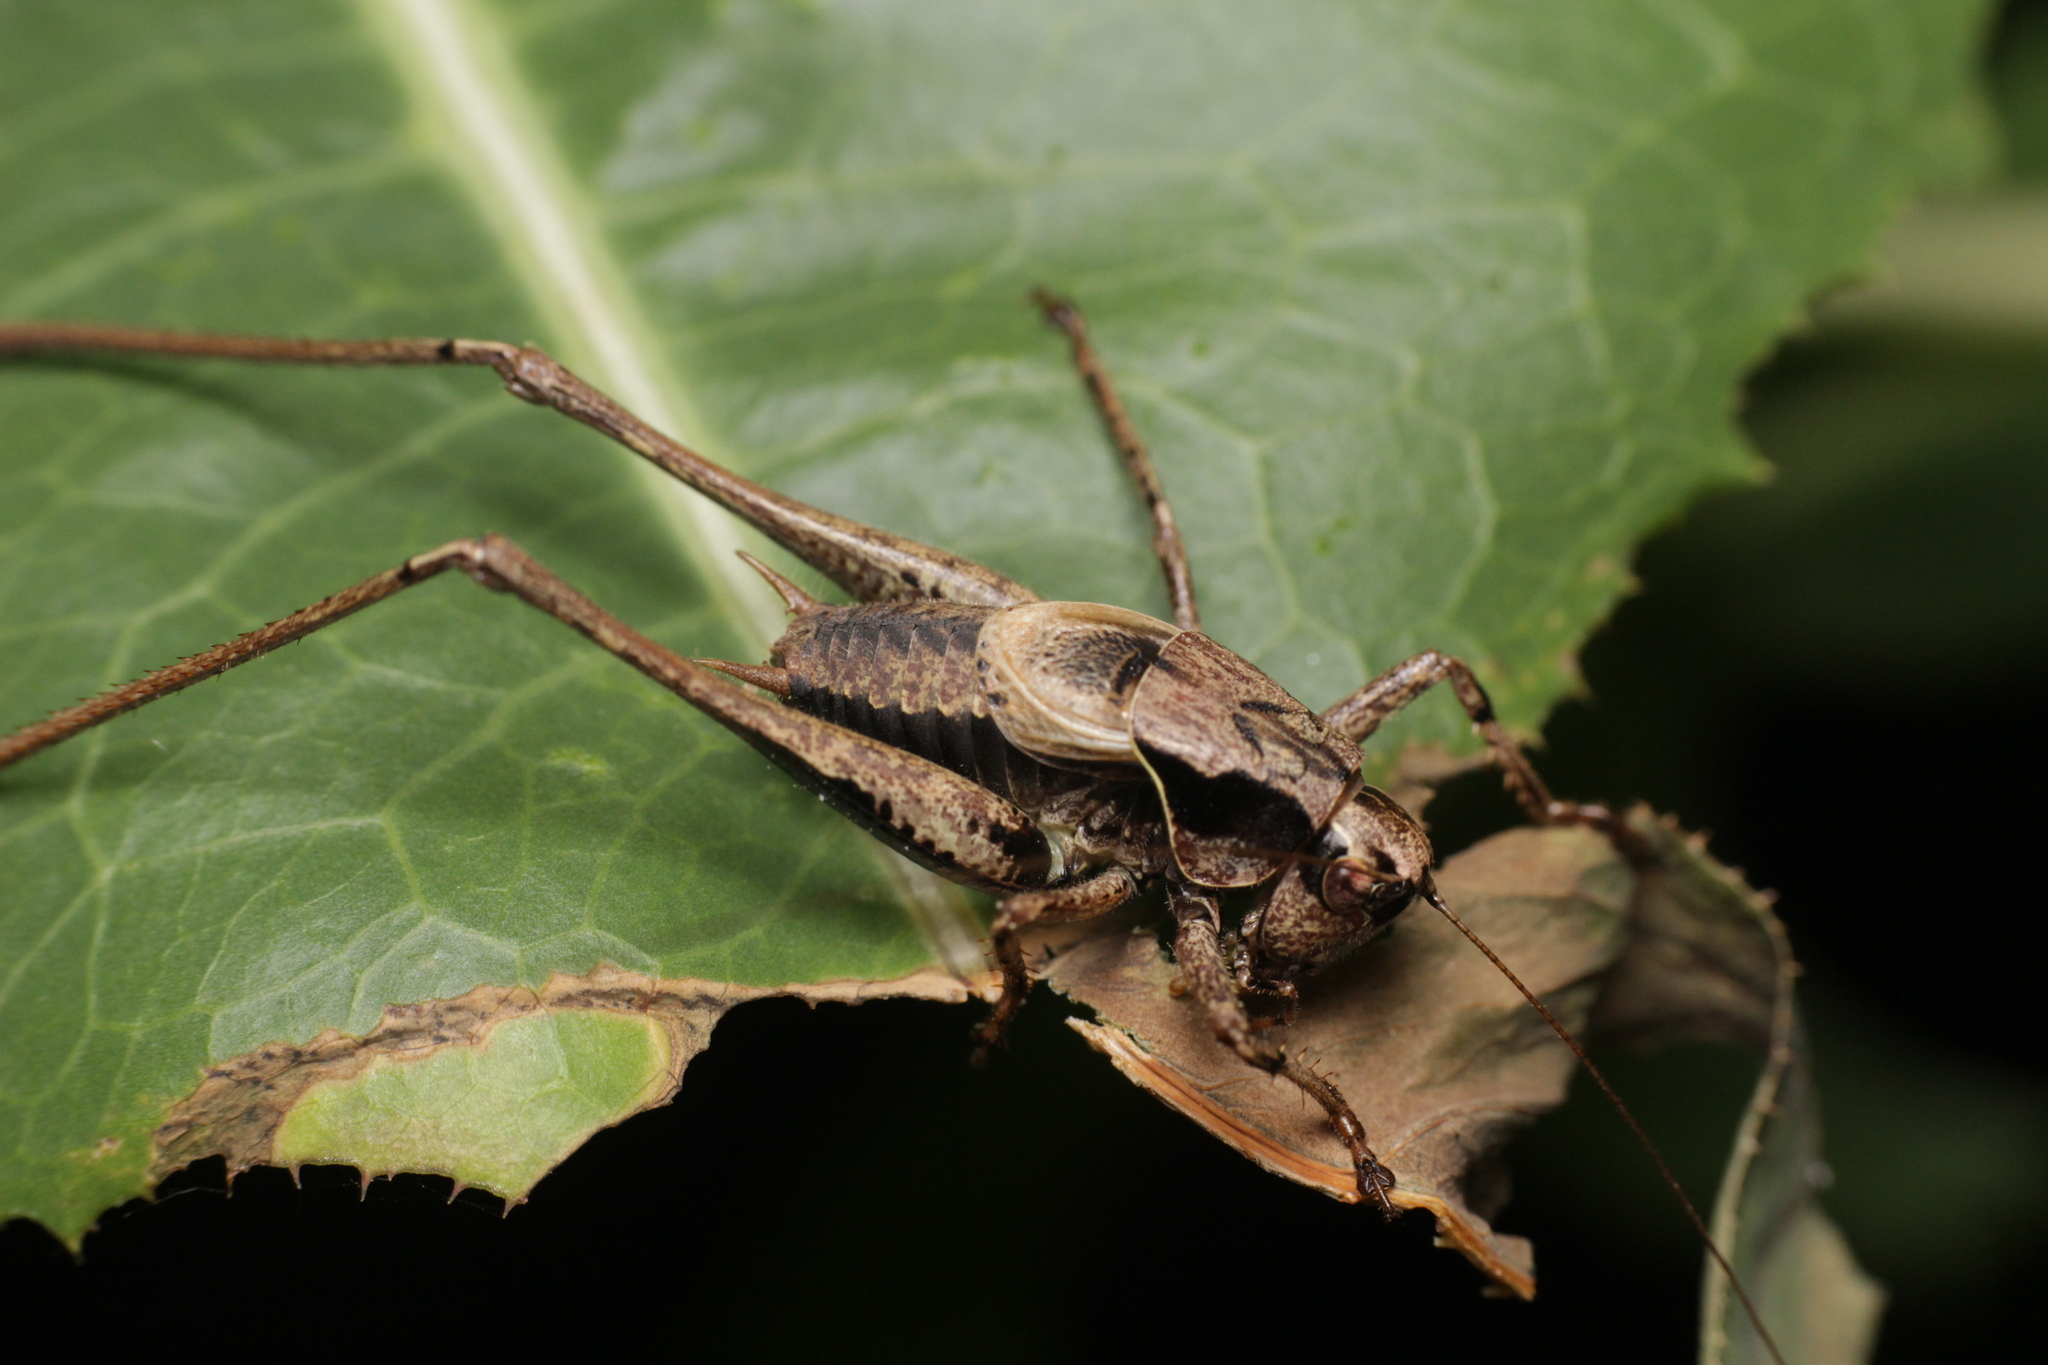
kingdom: Animalia
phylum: Arthropoda
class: Insecta
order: Orthoptera
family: Tettigoniidae
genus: Pholidoptera
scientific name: Pholidoptera griseoaptera
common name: Dark bush-cricket
